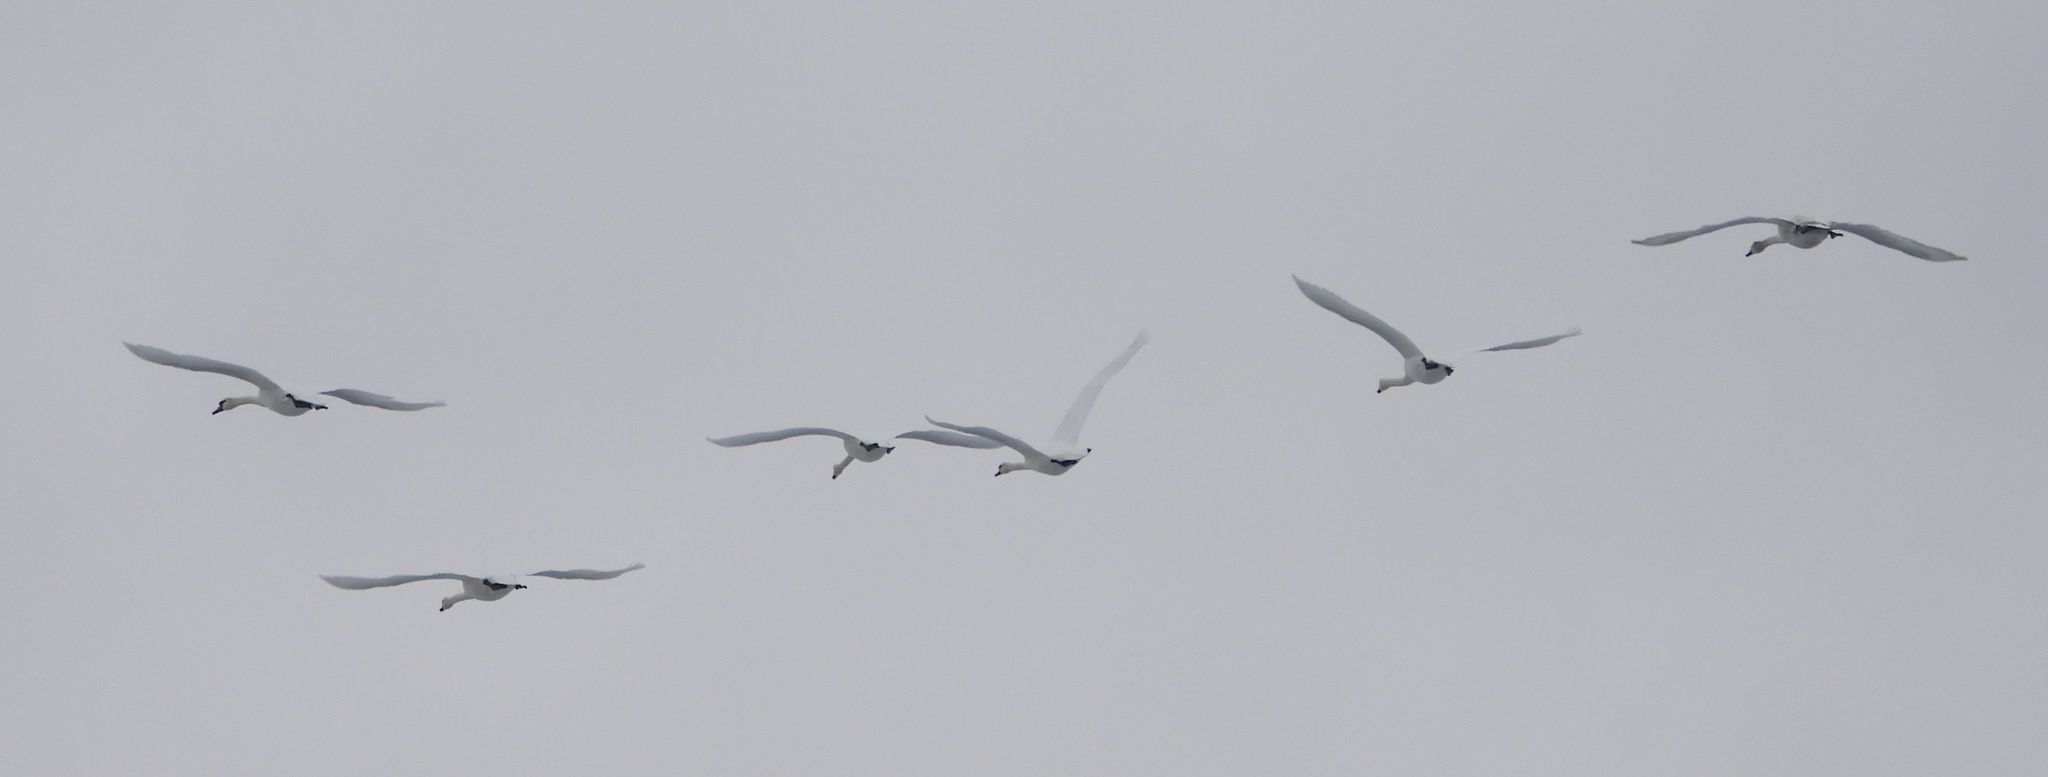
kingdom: Animalia
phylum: Chordata
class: Aves
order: Anseriformes
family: Anatidae
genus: Cygnus
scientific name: Cygnus olor
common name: Mute swan
